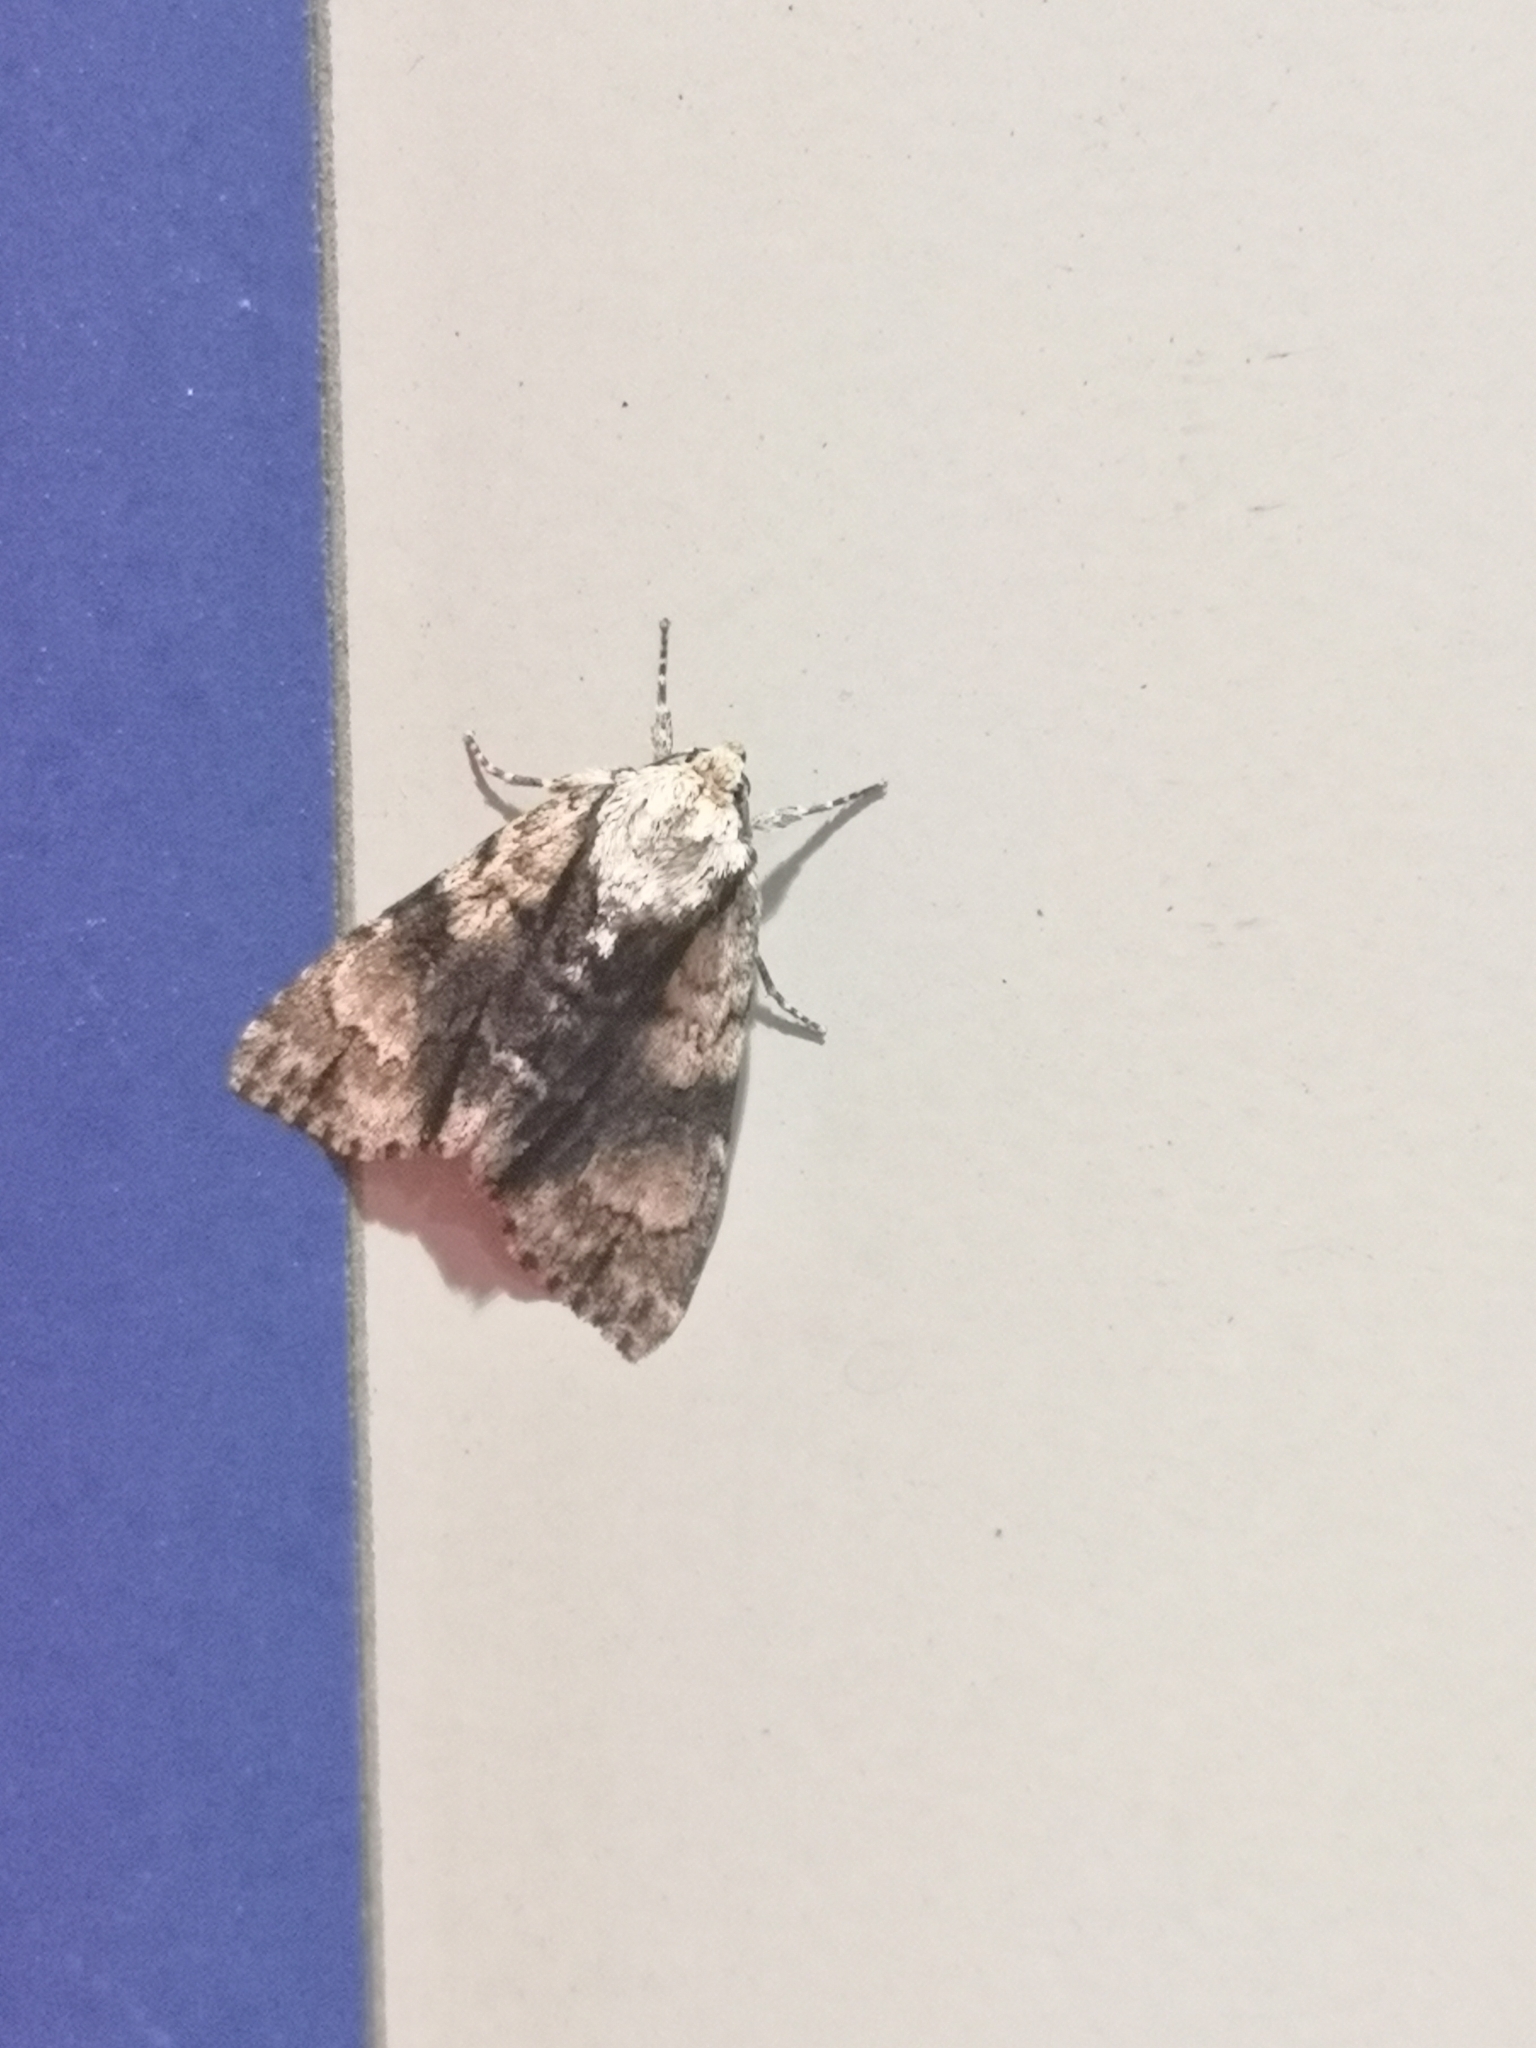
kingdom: Animalia
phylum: Arthropoda
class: Insecta
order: Lepidoptera
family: Noctuidae
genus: Acronicta
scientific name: Acronicta alni
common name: Alder moth
